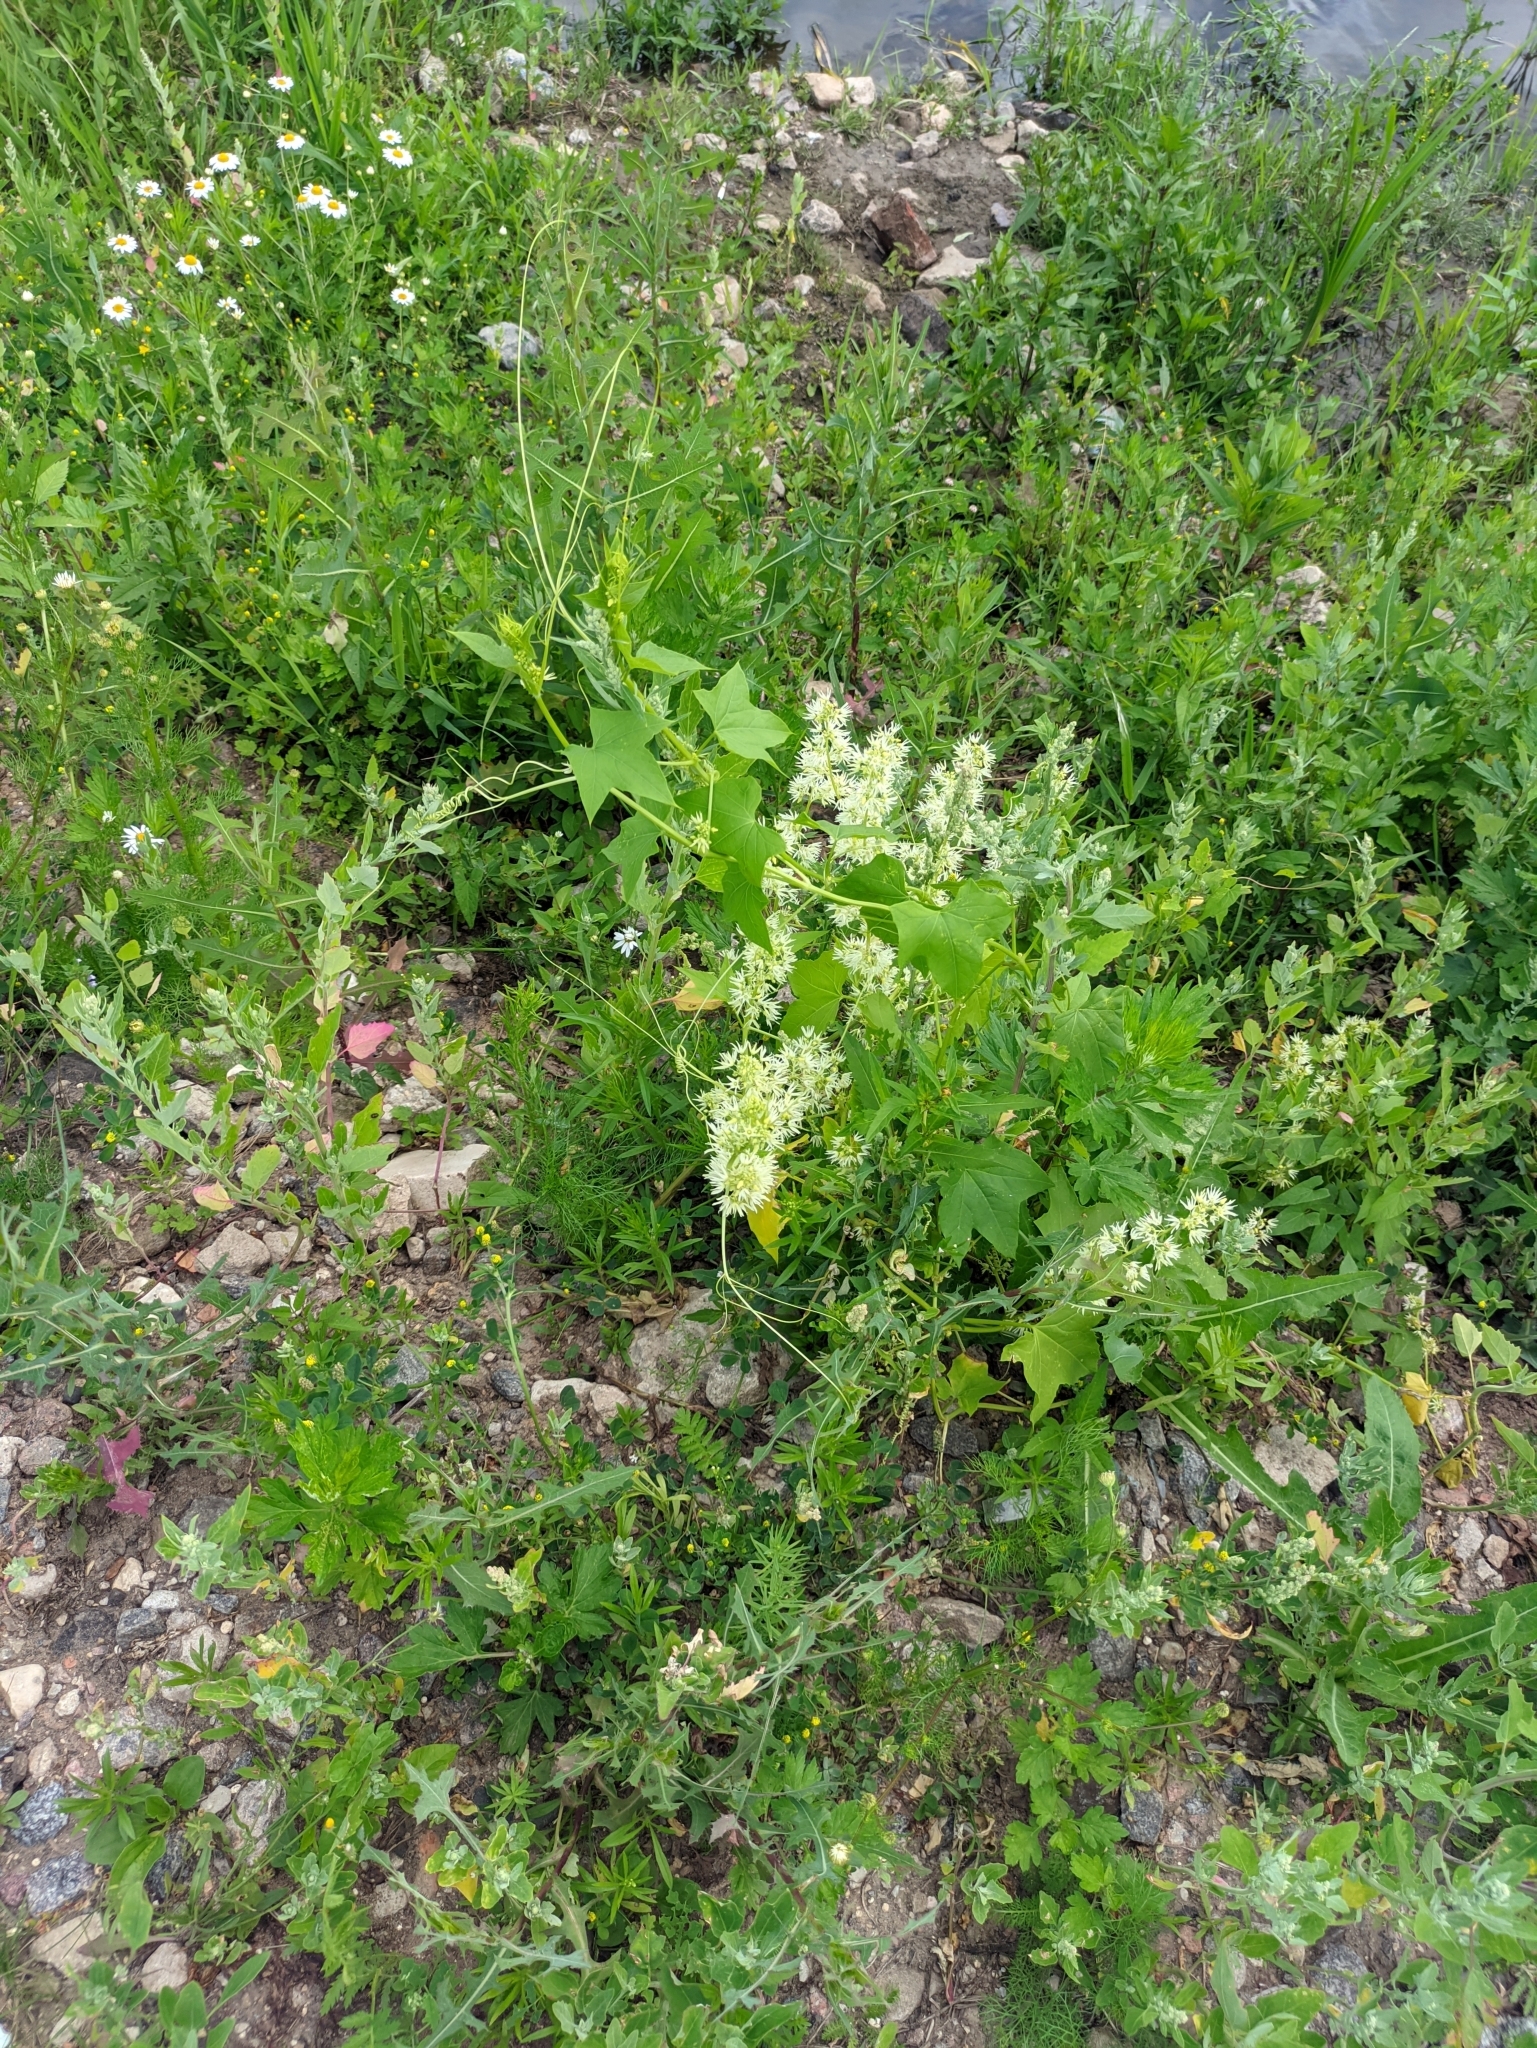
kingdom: Plantae
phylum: Tracheophyta
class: Magnoliopsida
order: Cucurbitales
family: Cucurbitaceae
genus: Echinocystis
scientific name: Echinocystis lobata
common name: Wild cucumber
